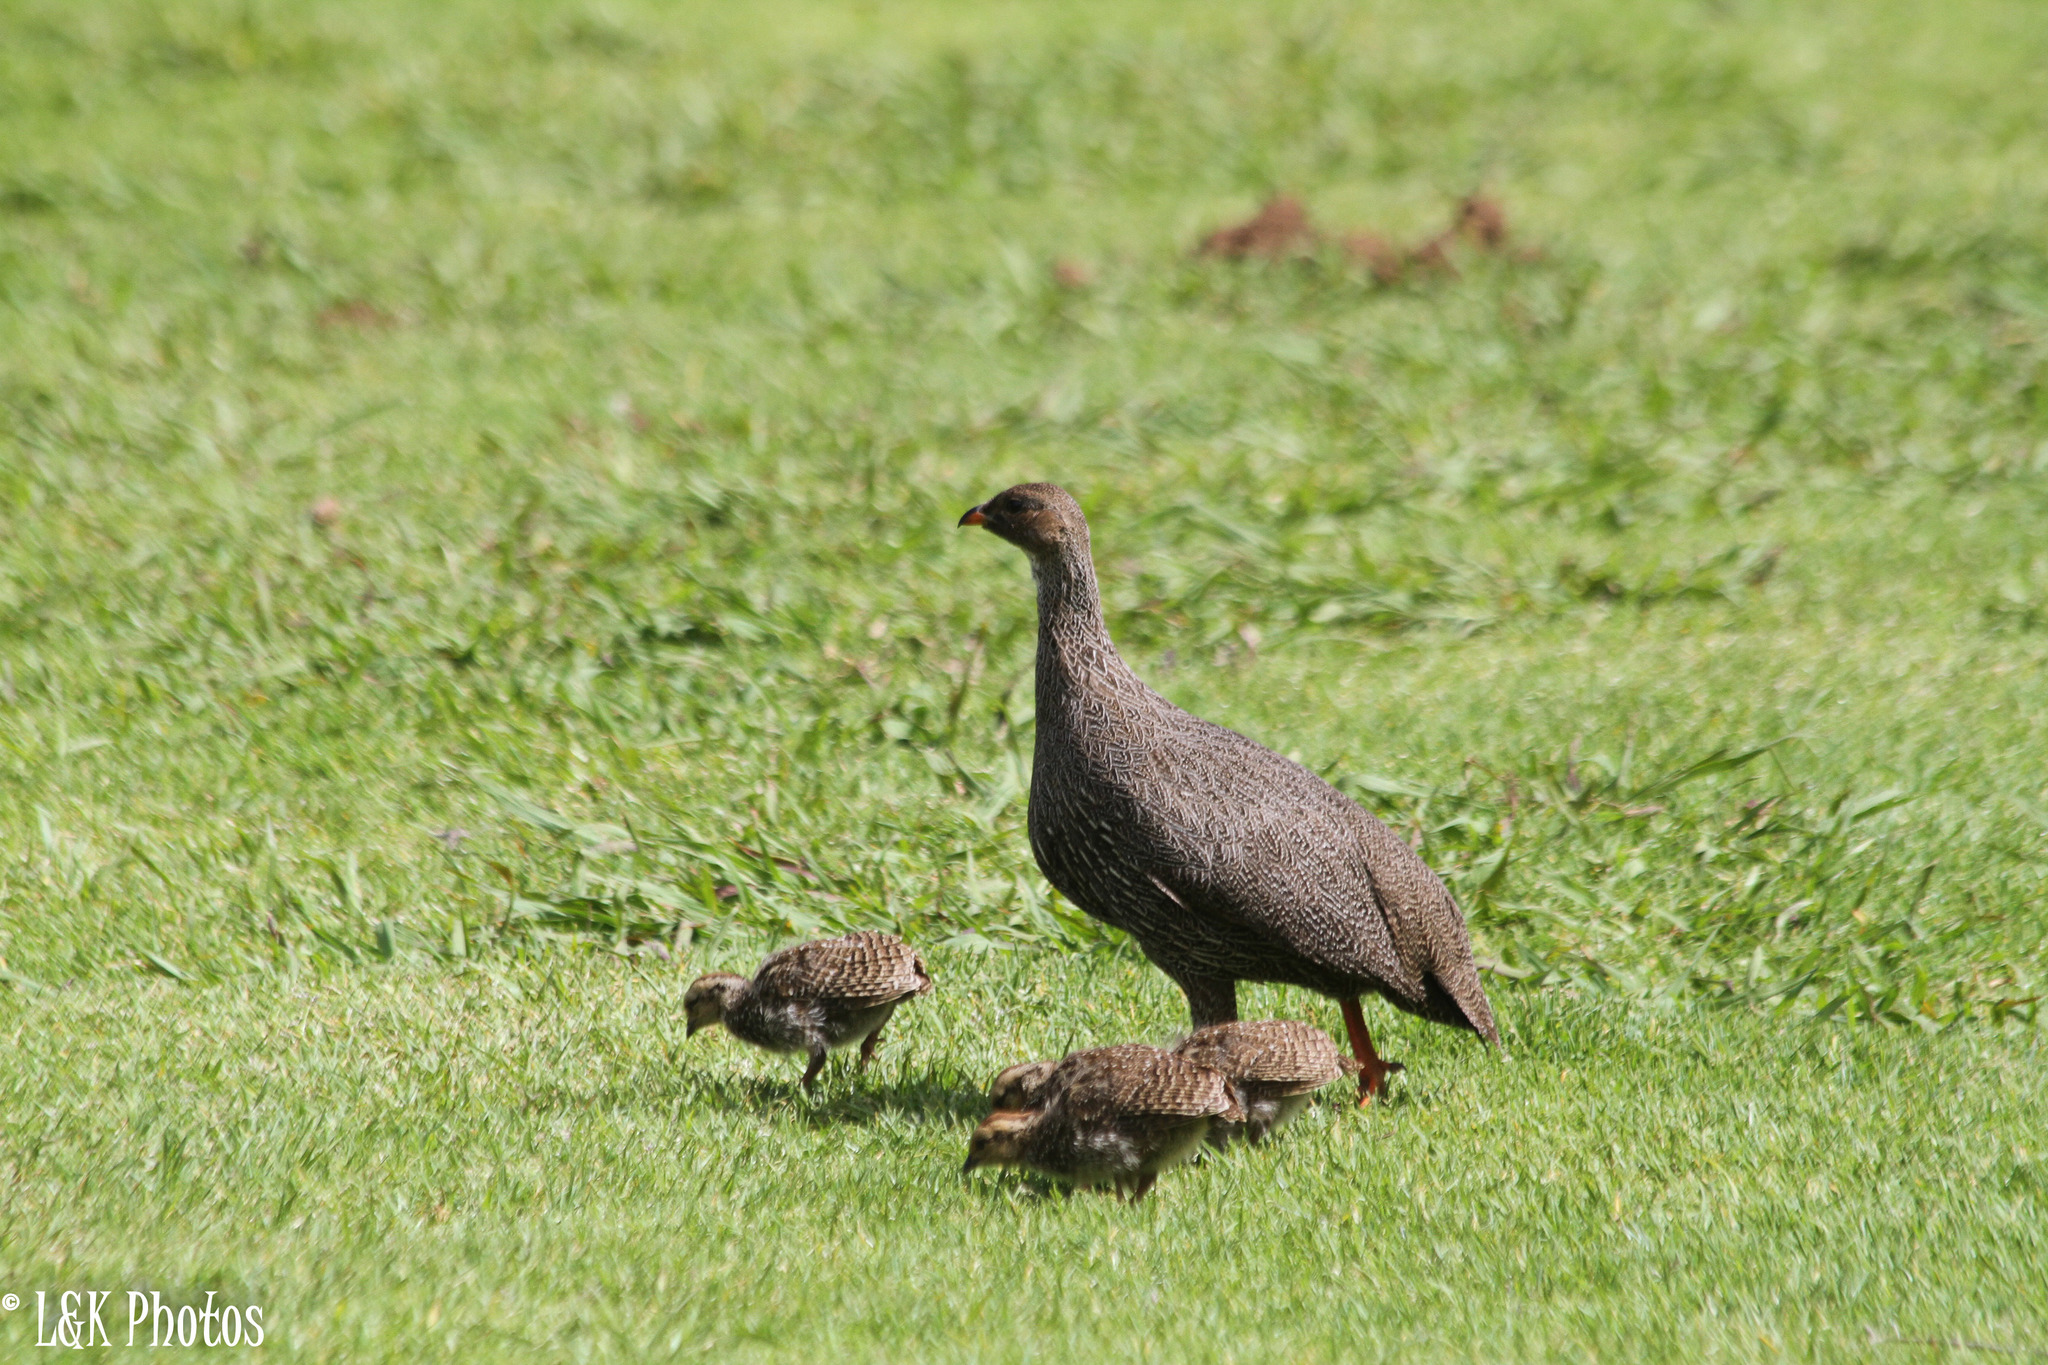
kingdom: Animalia
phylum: Chordata
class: Aves
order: Galliformes
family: Phasianidae
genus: Pternistis
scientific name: Pternistis capensis
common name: Cape spurfowl
